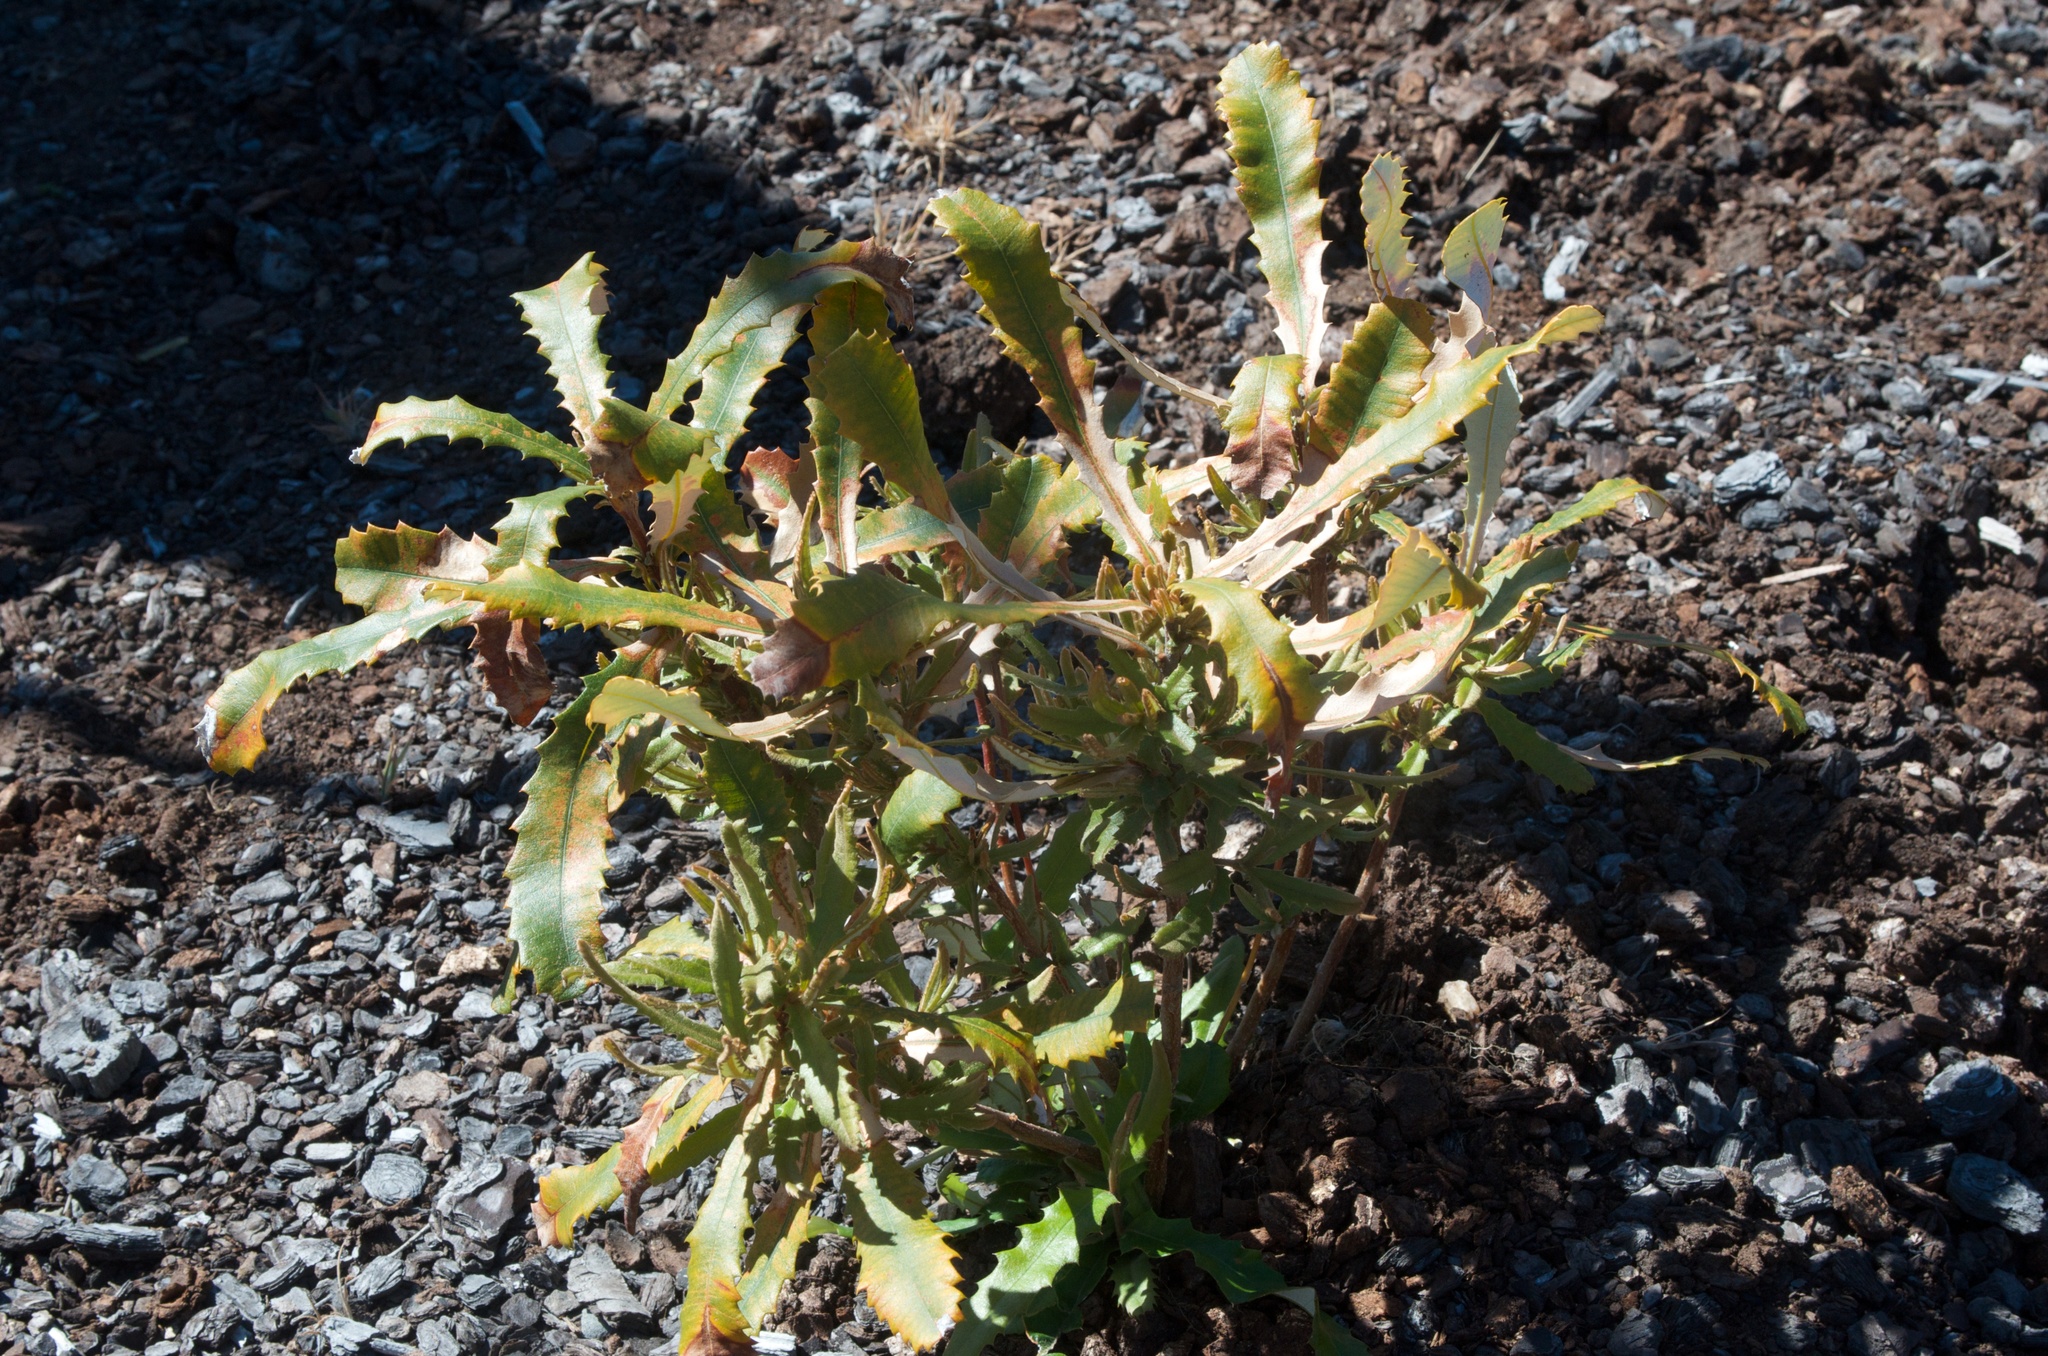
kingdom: Plantae
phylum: Tracheophyta
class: Magnoliopsida
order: Proteales
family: Proteaceae
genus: Banksia
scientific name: Banksia integrifolia
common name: White-honeysuckle
